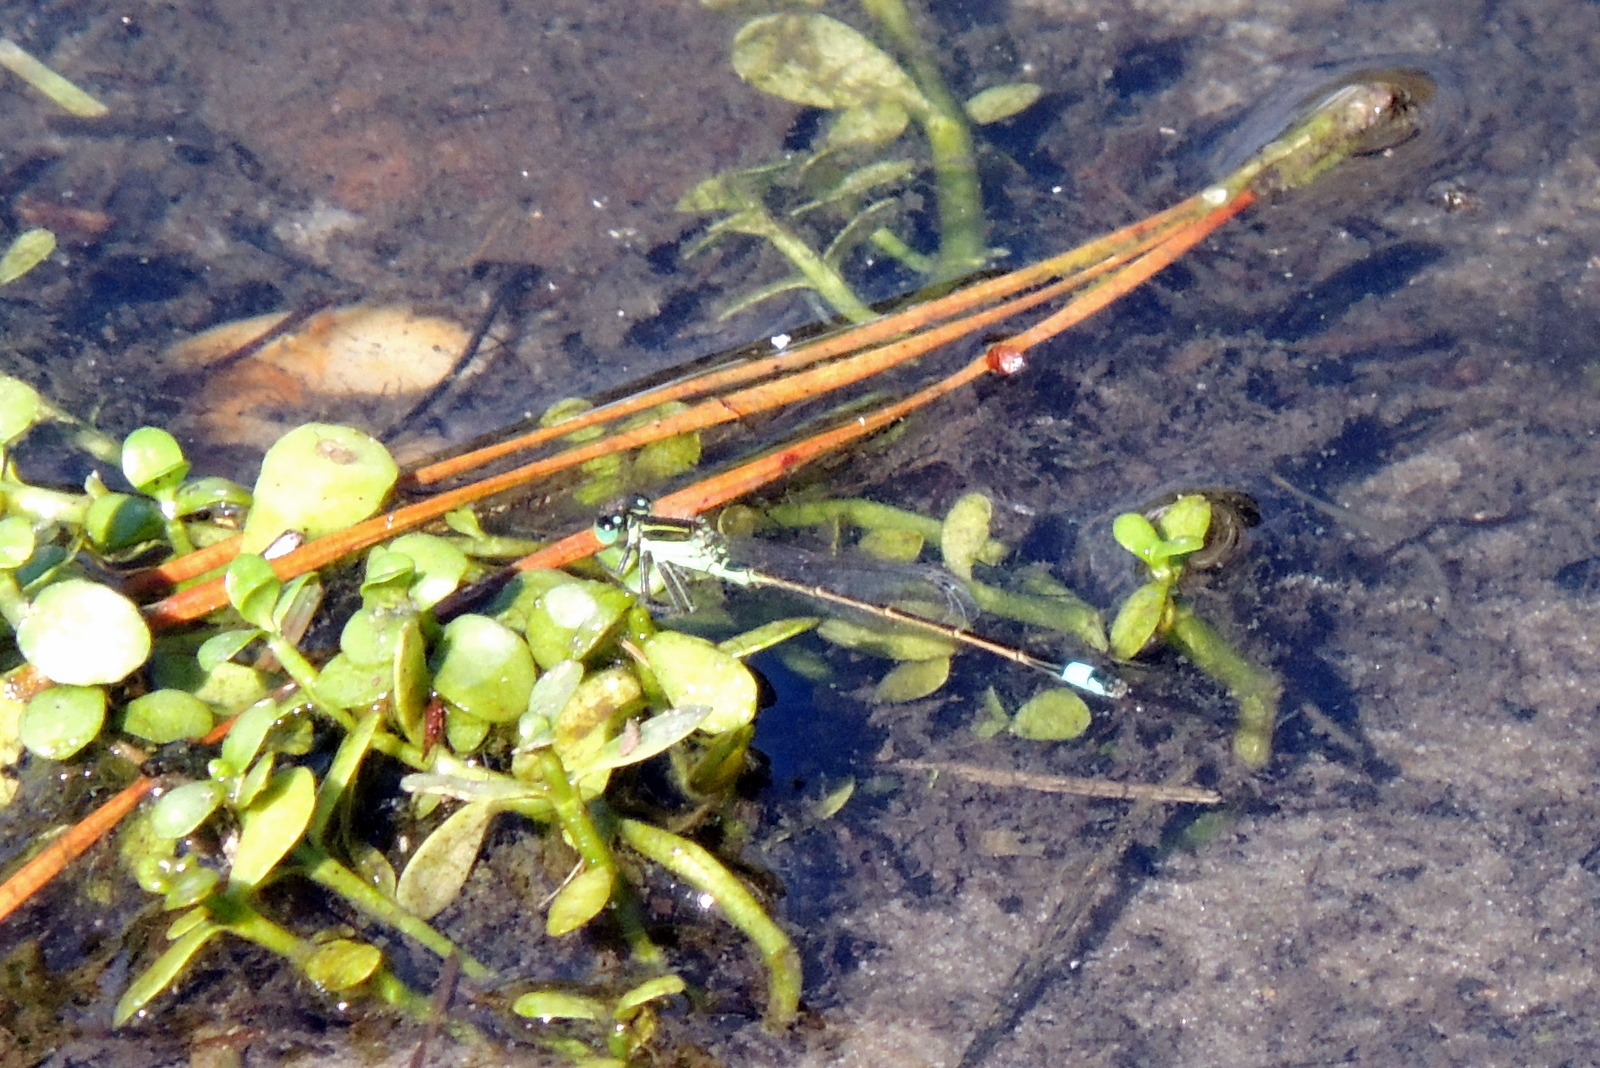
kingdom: Animalia
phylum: Arthropoda
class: Insecta
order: Odonata
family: Coenagrionidae
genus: Ischnura
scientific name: Ischnura ramburii
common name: Rambur's forktail
